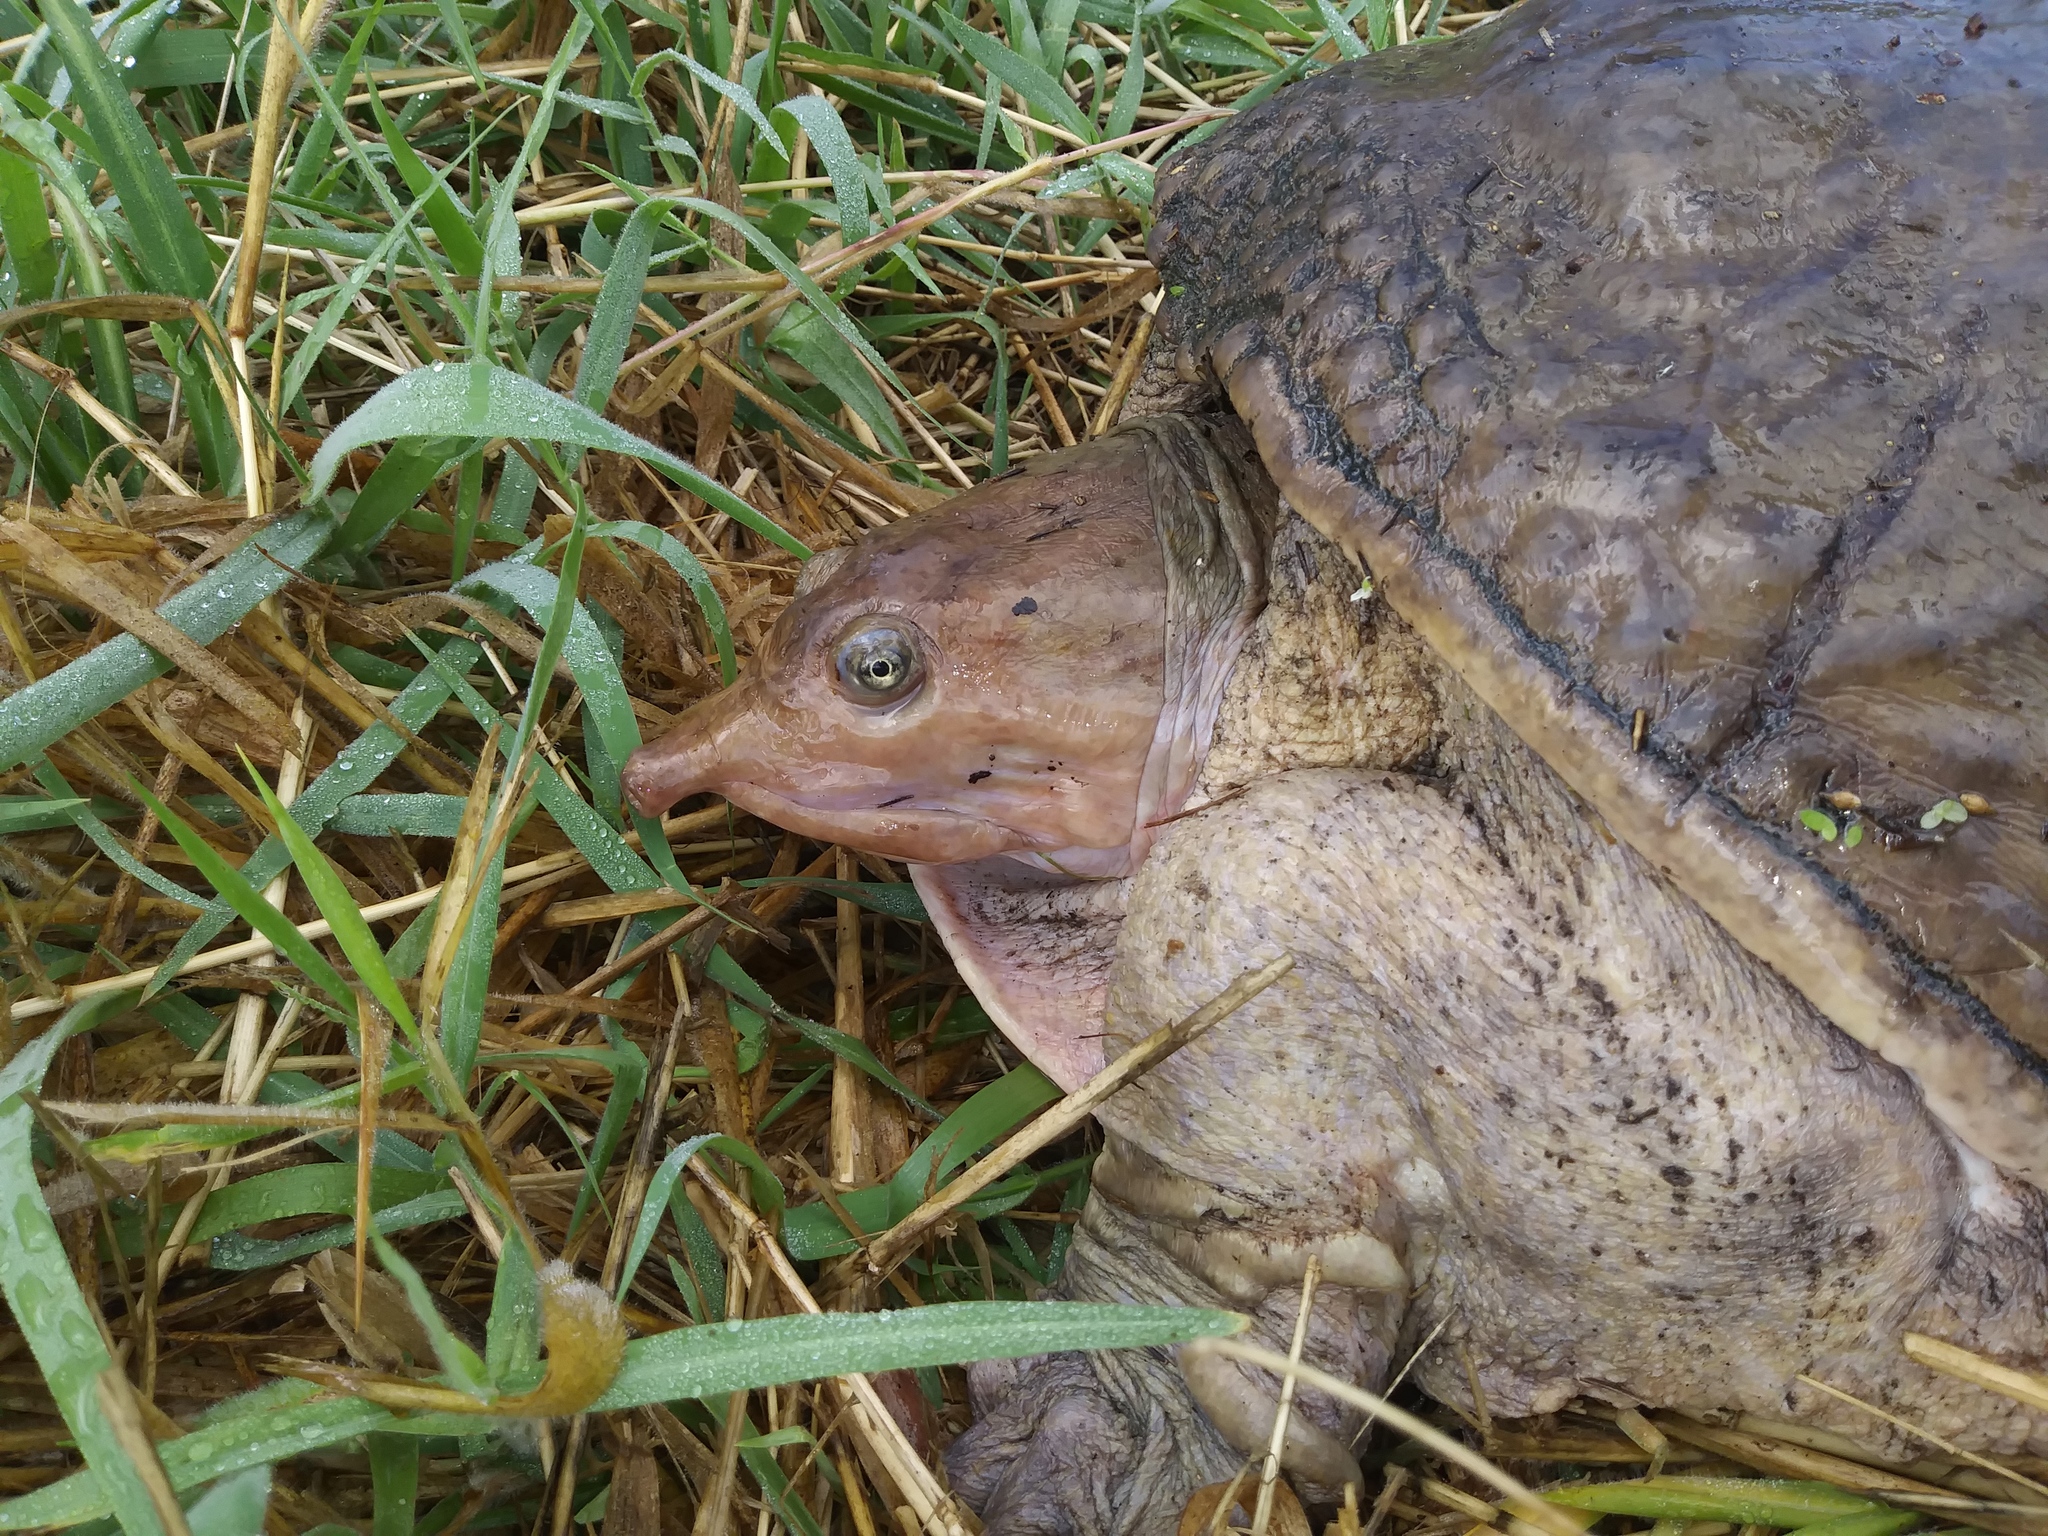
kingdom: Animalia
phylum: Chordata
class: Testudines
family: Trionychidae
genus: Apalone
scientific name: Apalone ferox
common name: Florida softshell turtle
